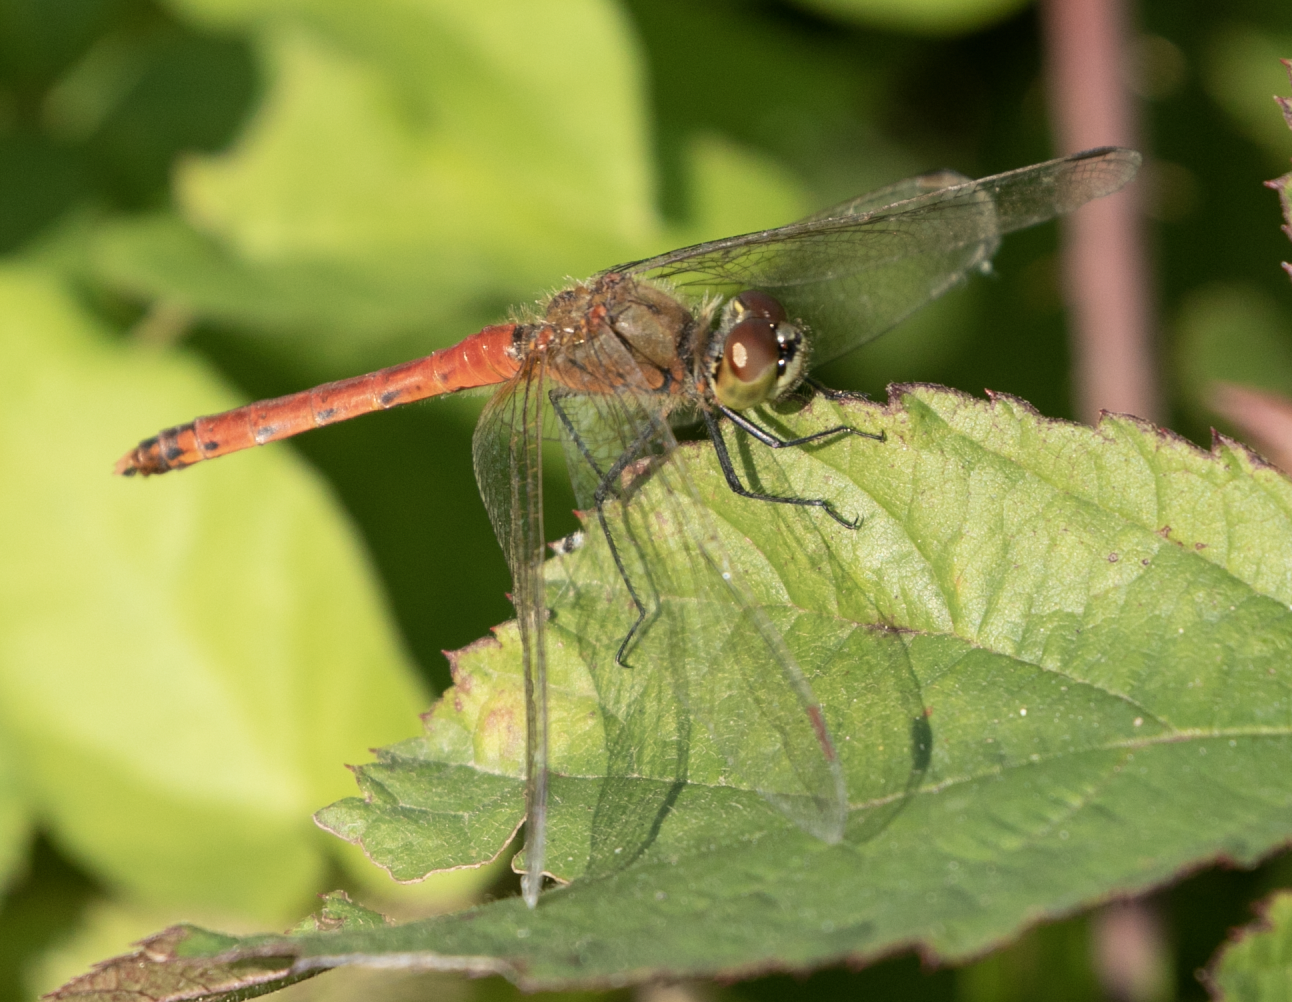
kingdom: Animalia
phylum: Arthropoda
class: Insecta
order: Odonata
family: Libellulidae
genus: Sympetrum
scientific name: Sympetrum depressiusculum
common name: Spotted darter
